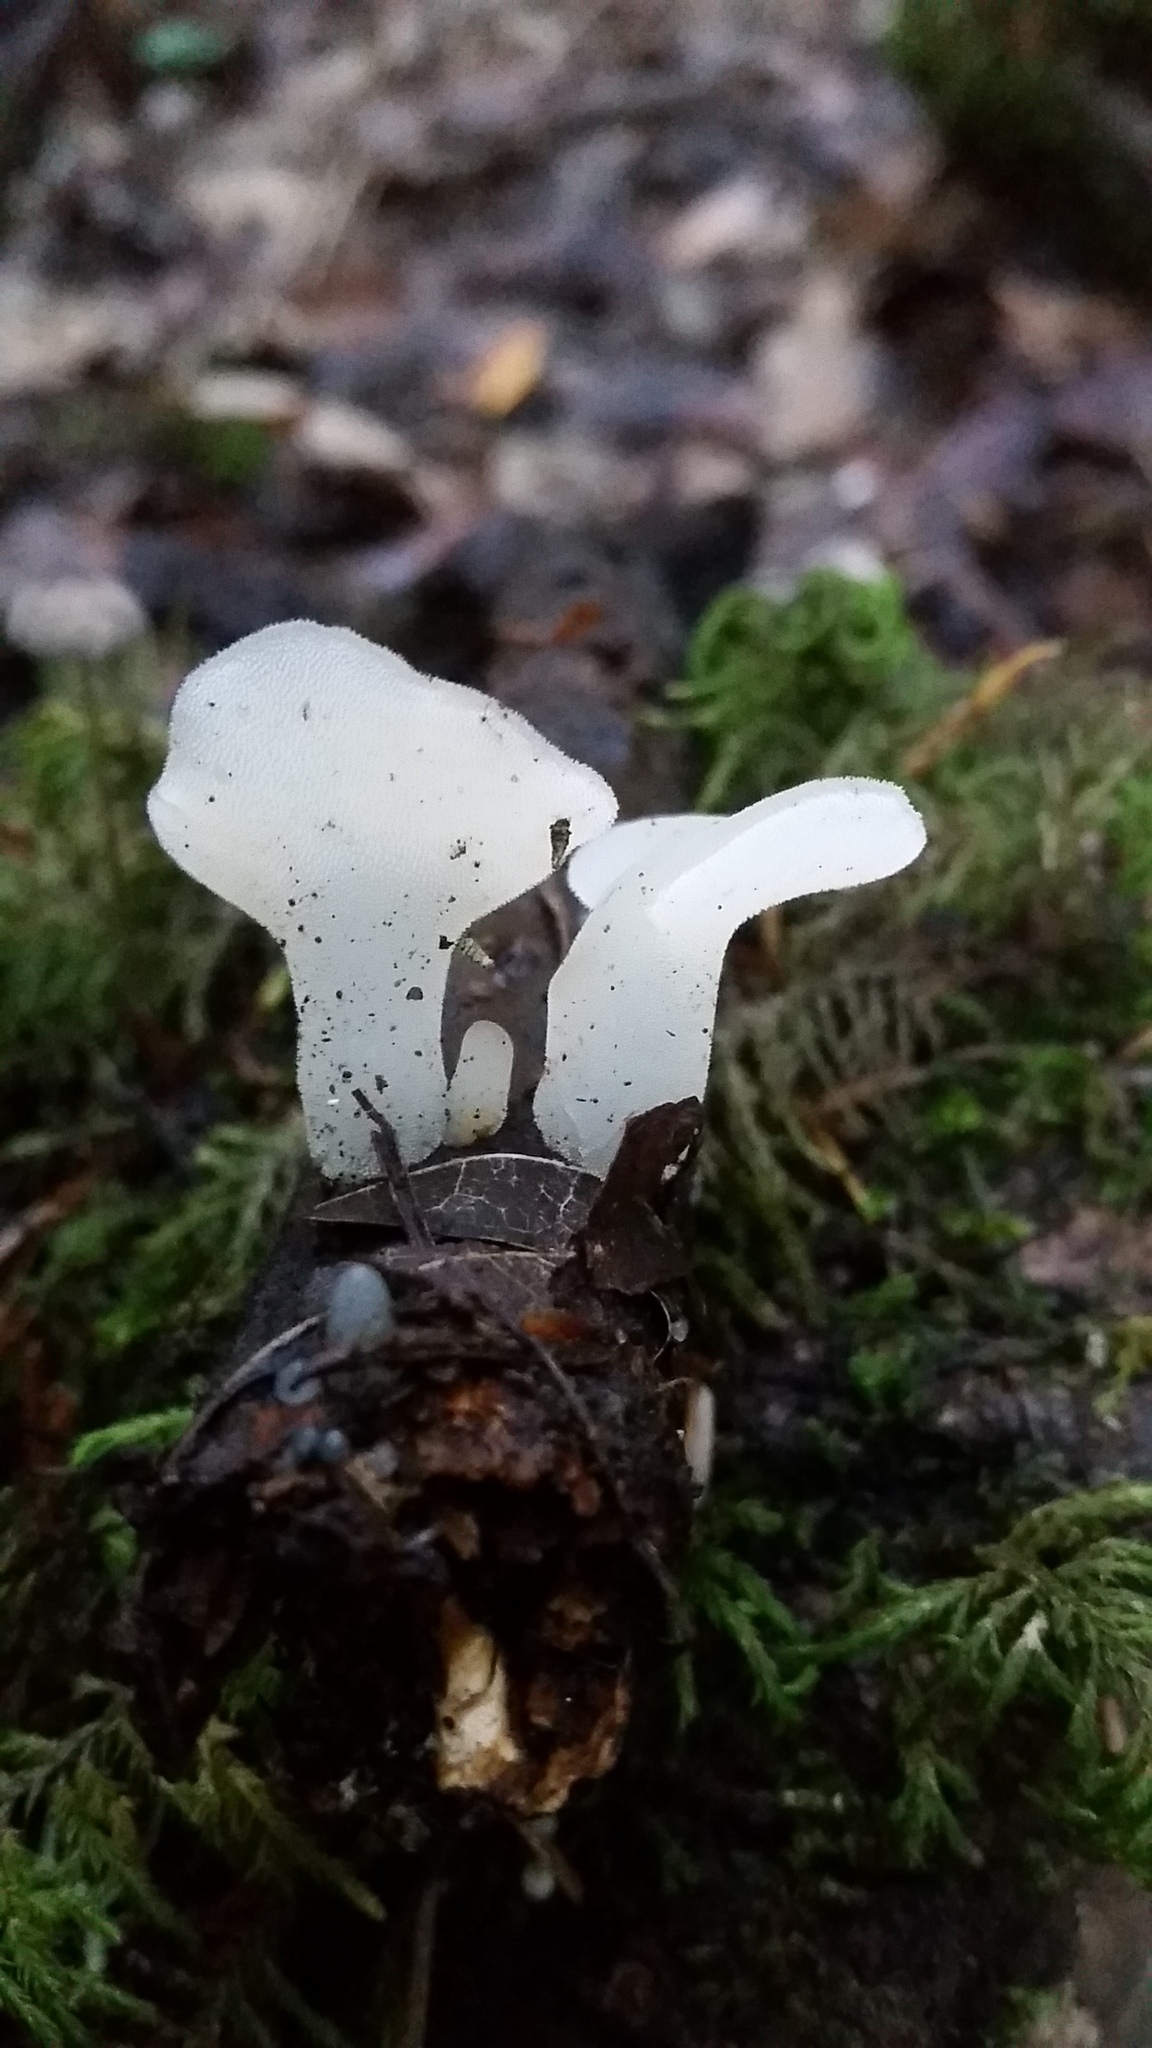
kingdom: Fungi
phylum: Basidiomycota
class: Agaricomycetes
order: Auriculariales
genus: Pseudohydnum
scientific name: Pseudohydnum gelatinosum
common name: Jelly tongue
